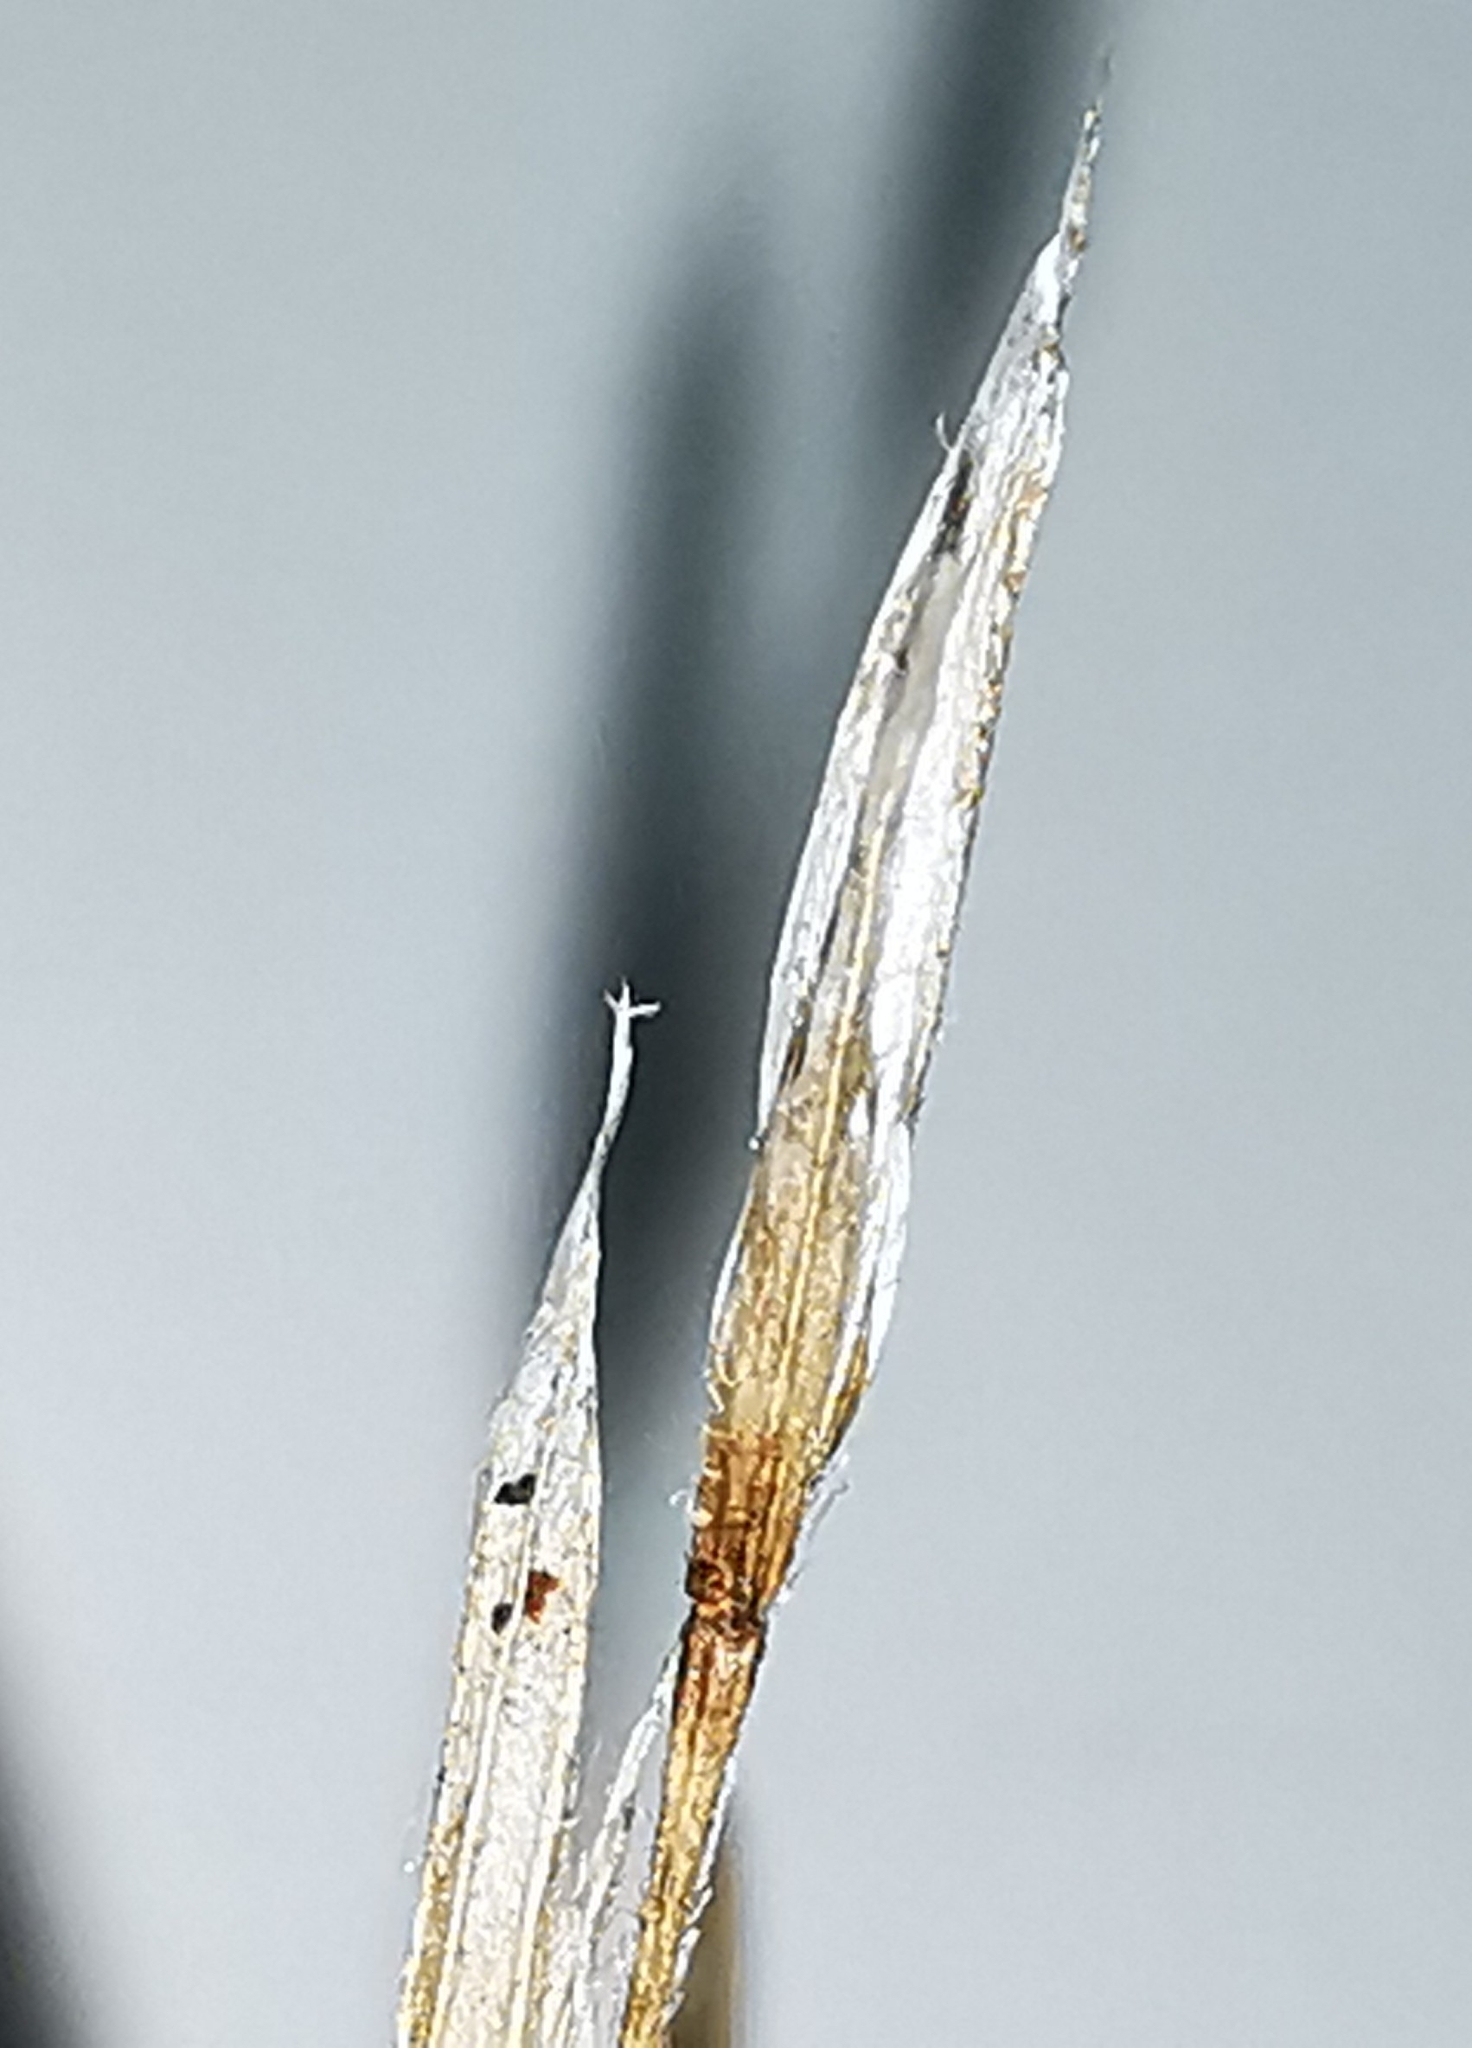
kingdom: Plantae
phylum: Tracheophyta
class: Liliopsida
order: Poales
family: Poaceae
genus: Bromus
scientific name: Bromus tectorum
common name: Cheatgrass
